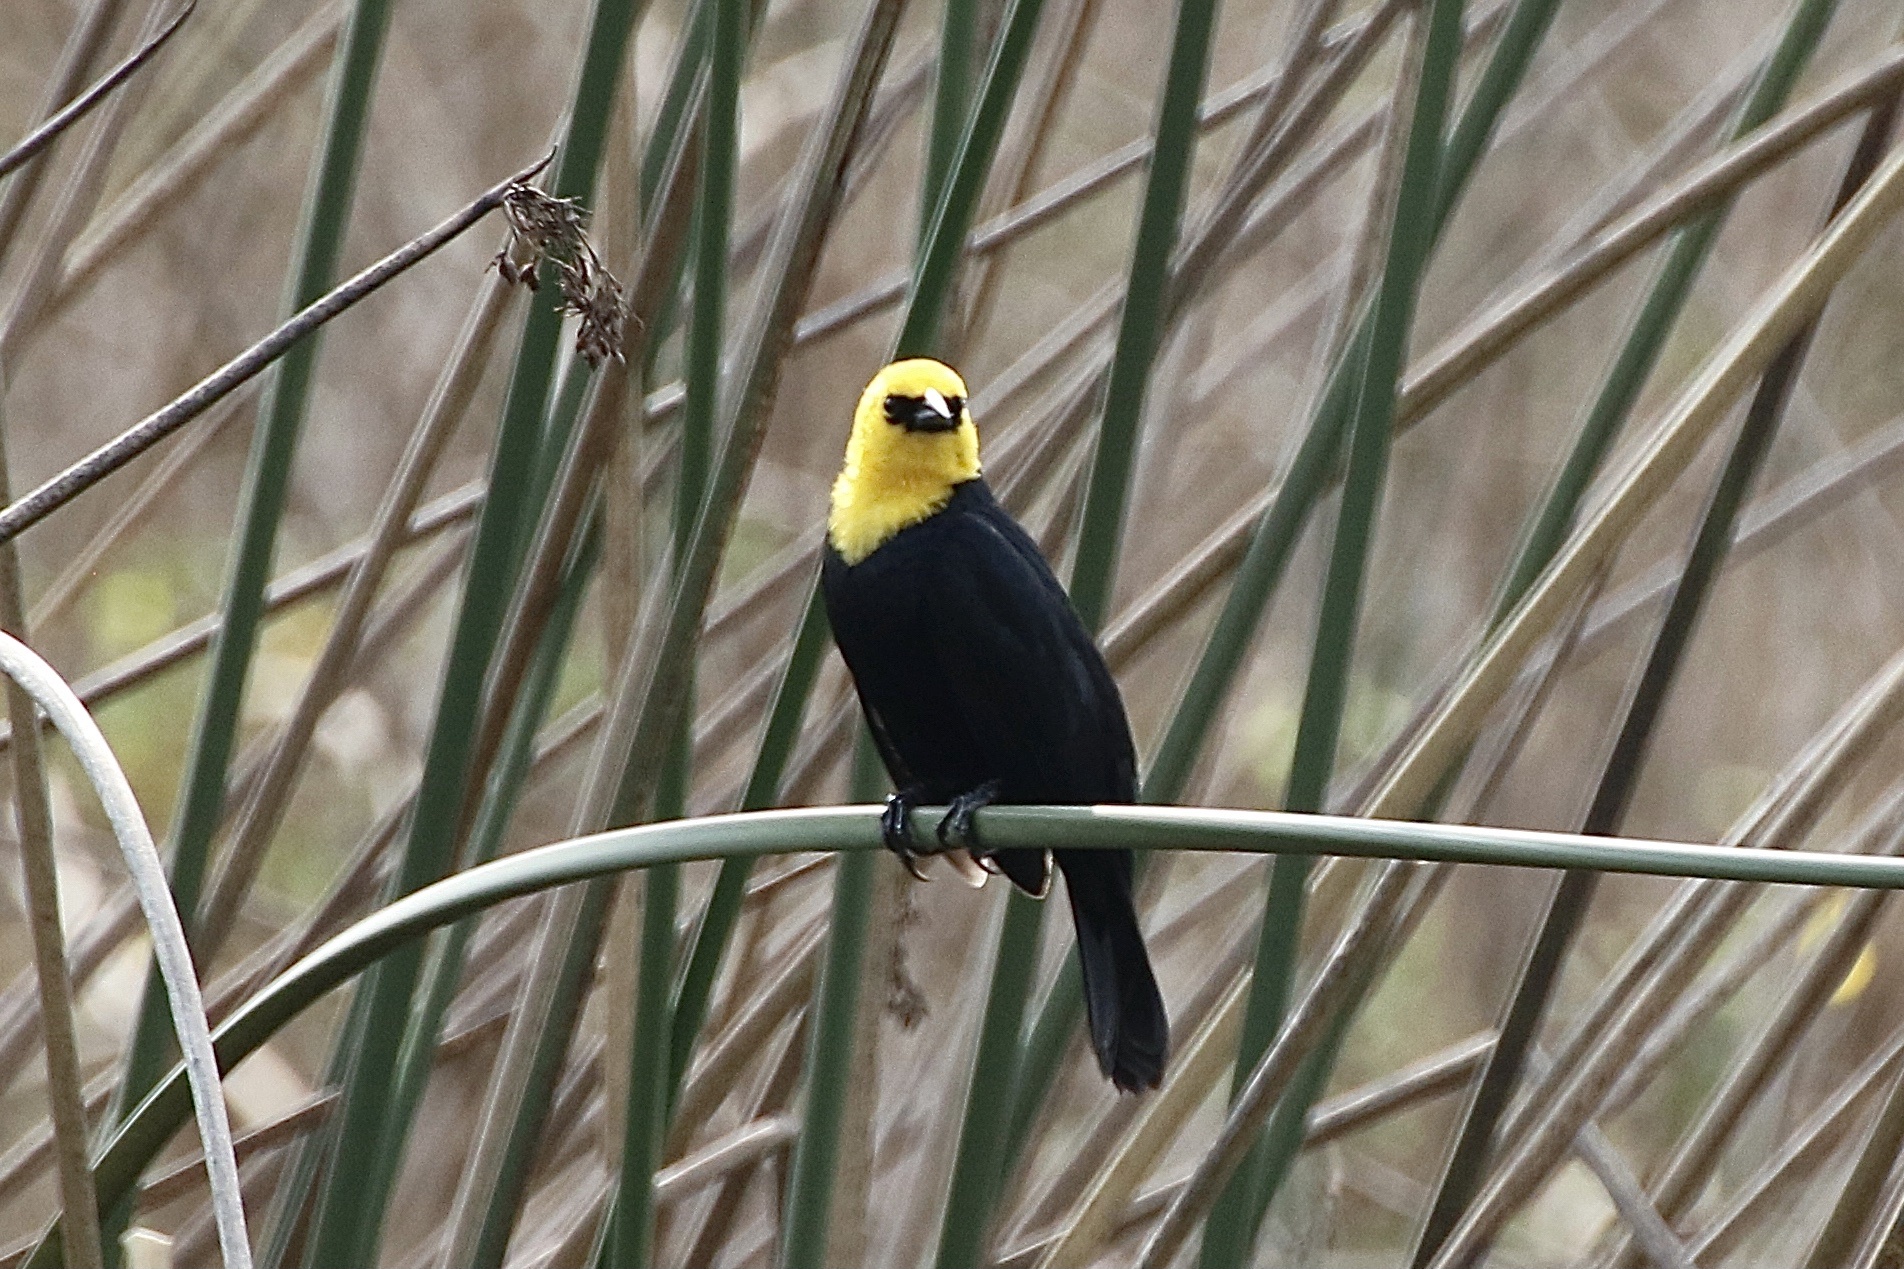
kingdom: Animalia
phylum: Chordata
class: Aves
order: Passeriformes
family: Icteridae
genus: Chrysomus
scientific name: Chrysomus icterocephalus
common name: Yellow-hooded blackbird
